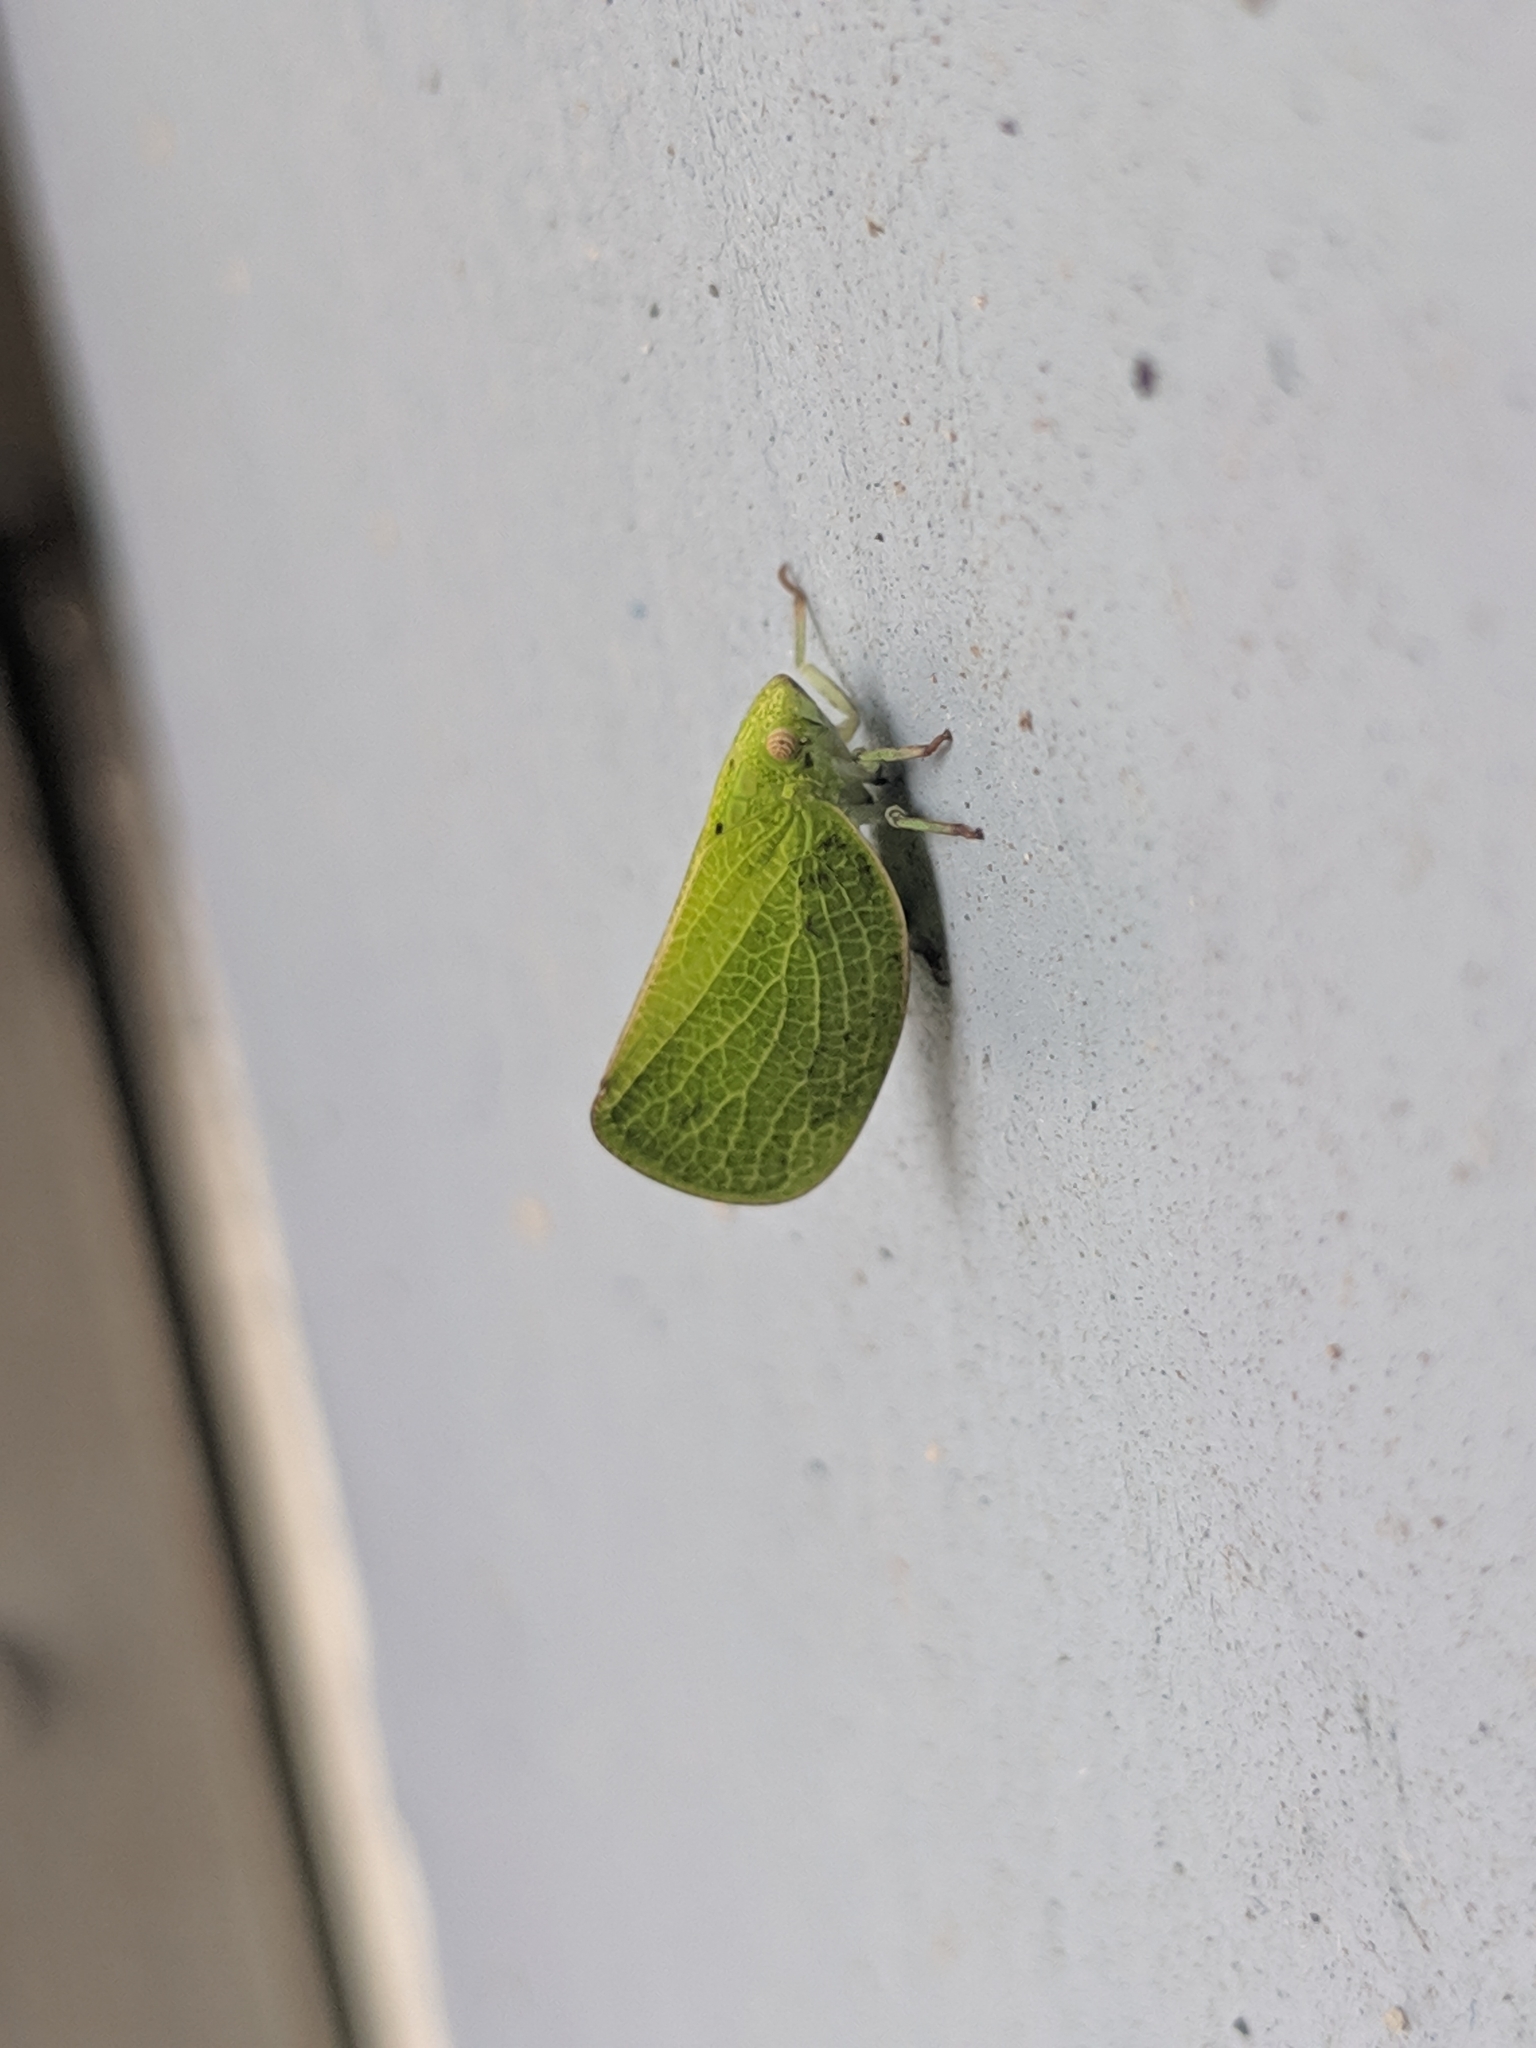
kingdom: Animalia
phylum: Arthropoda
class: Insecta
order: Hemiptera
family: Acanaloniidae
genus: Acanalonia
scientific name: Acanalonia conica
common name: Green cone-headed planthopper
